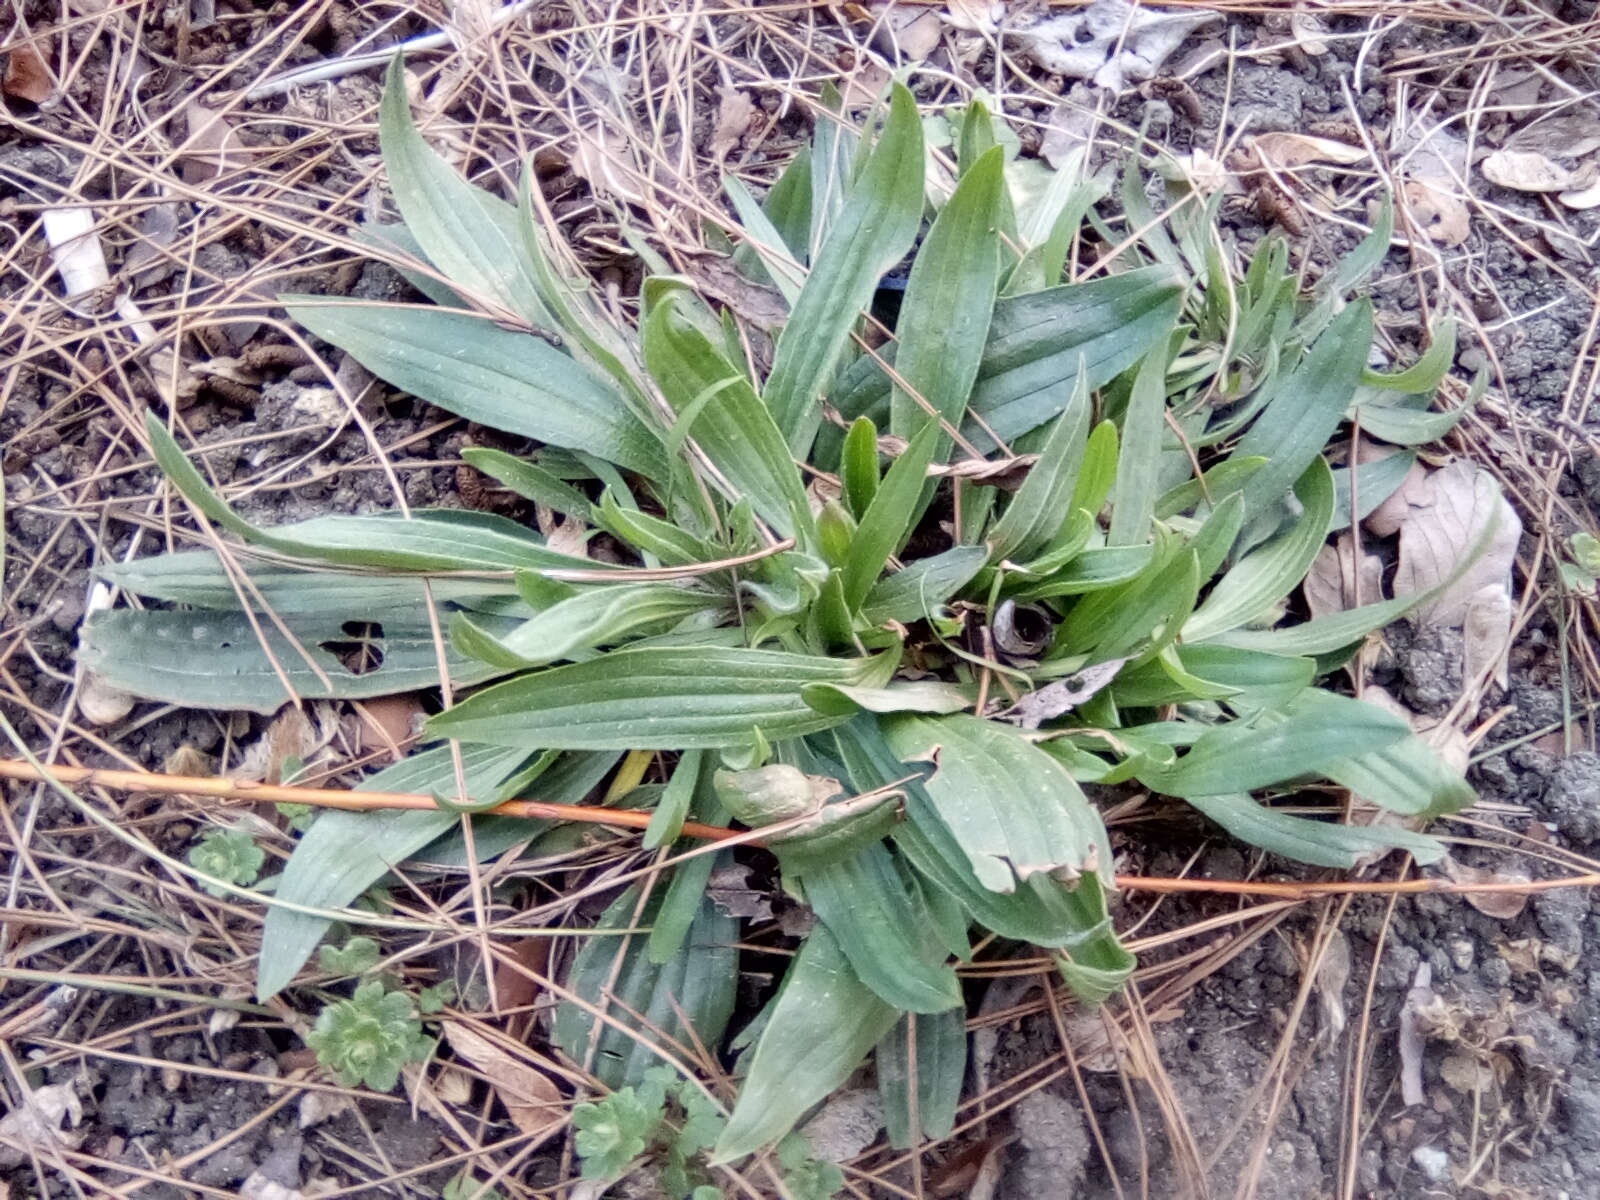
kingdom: Plantae
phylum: Tracheophyta
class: Magnoliopsida
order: Lamiales
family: Plantaginaceae
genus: Plantago
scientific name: Plantago lanceolata
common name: Ribwort plantain
